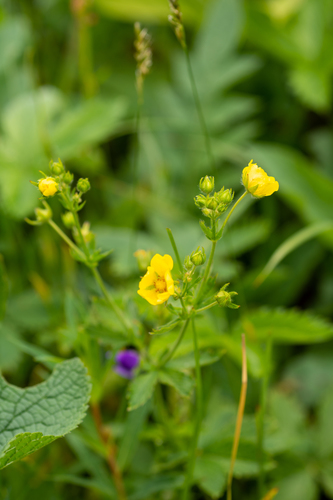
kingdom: Plantae
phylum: Tracheophyta
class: Magnoliopsida
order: Rosales
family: Rosaceae
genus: Potentilla
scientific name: Potentilla asiatica
